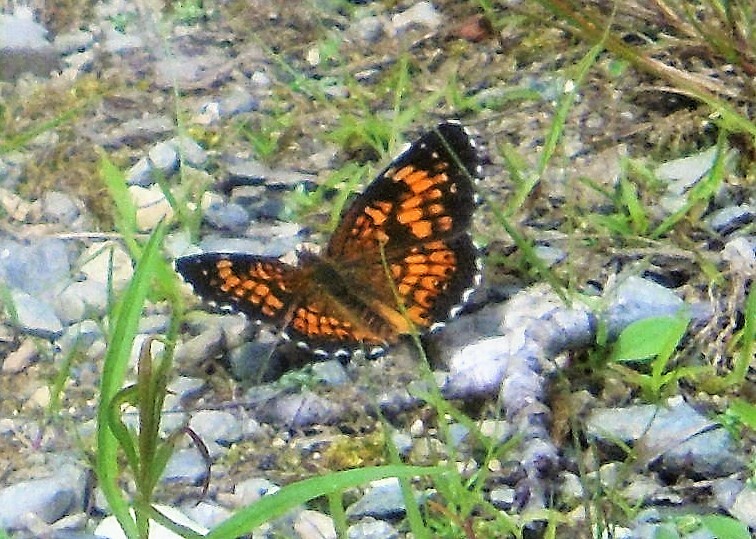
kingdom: Animalia
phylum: Arthropoda
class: Insecta
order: Lepidoptera
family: Nymphalidae
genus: Chlosyne
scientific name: Chlosyne harrisii
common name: Harris's checkerspot
